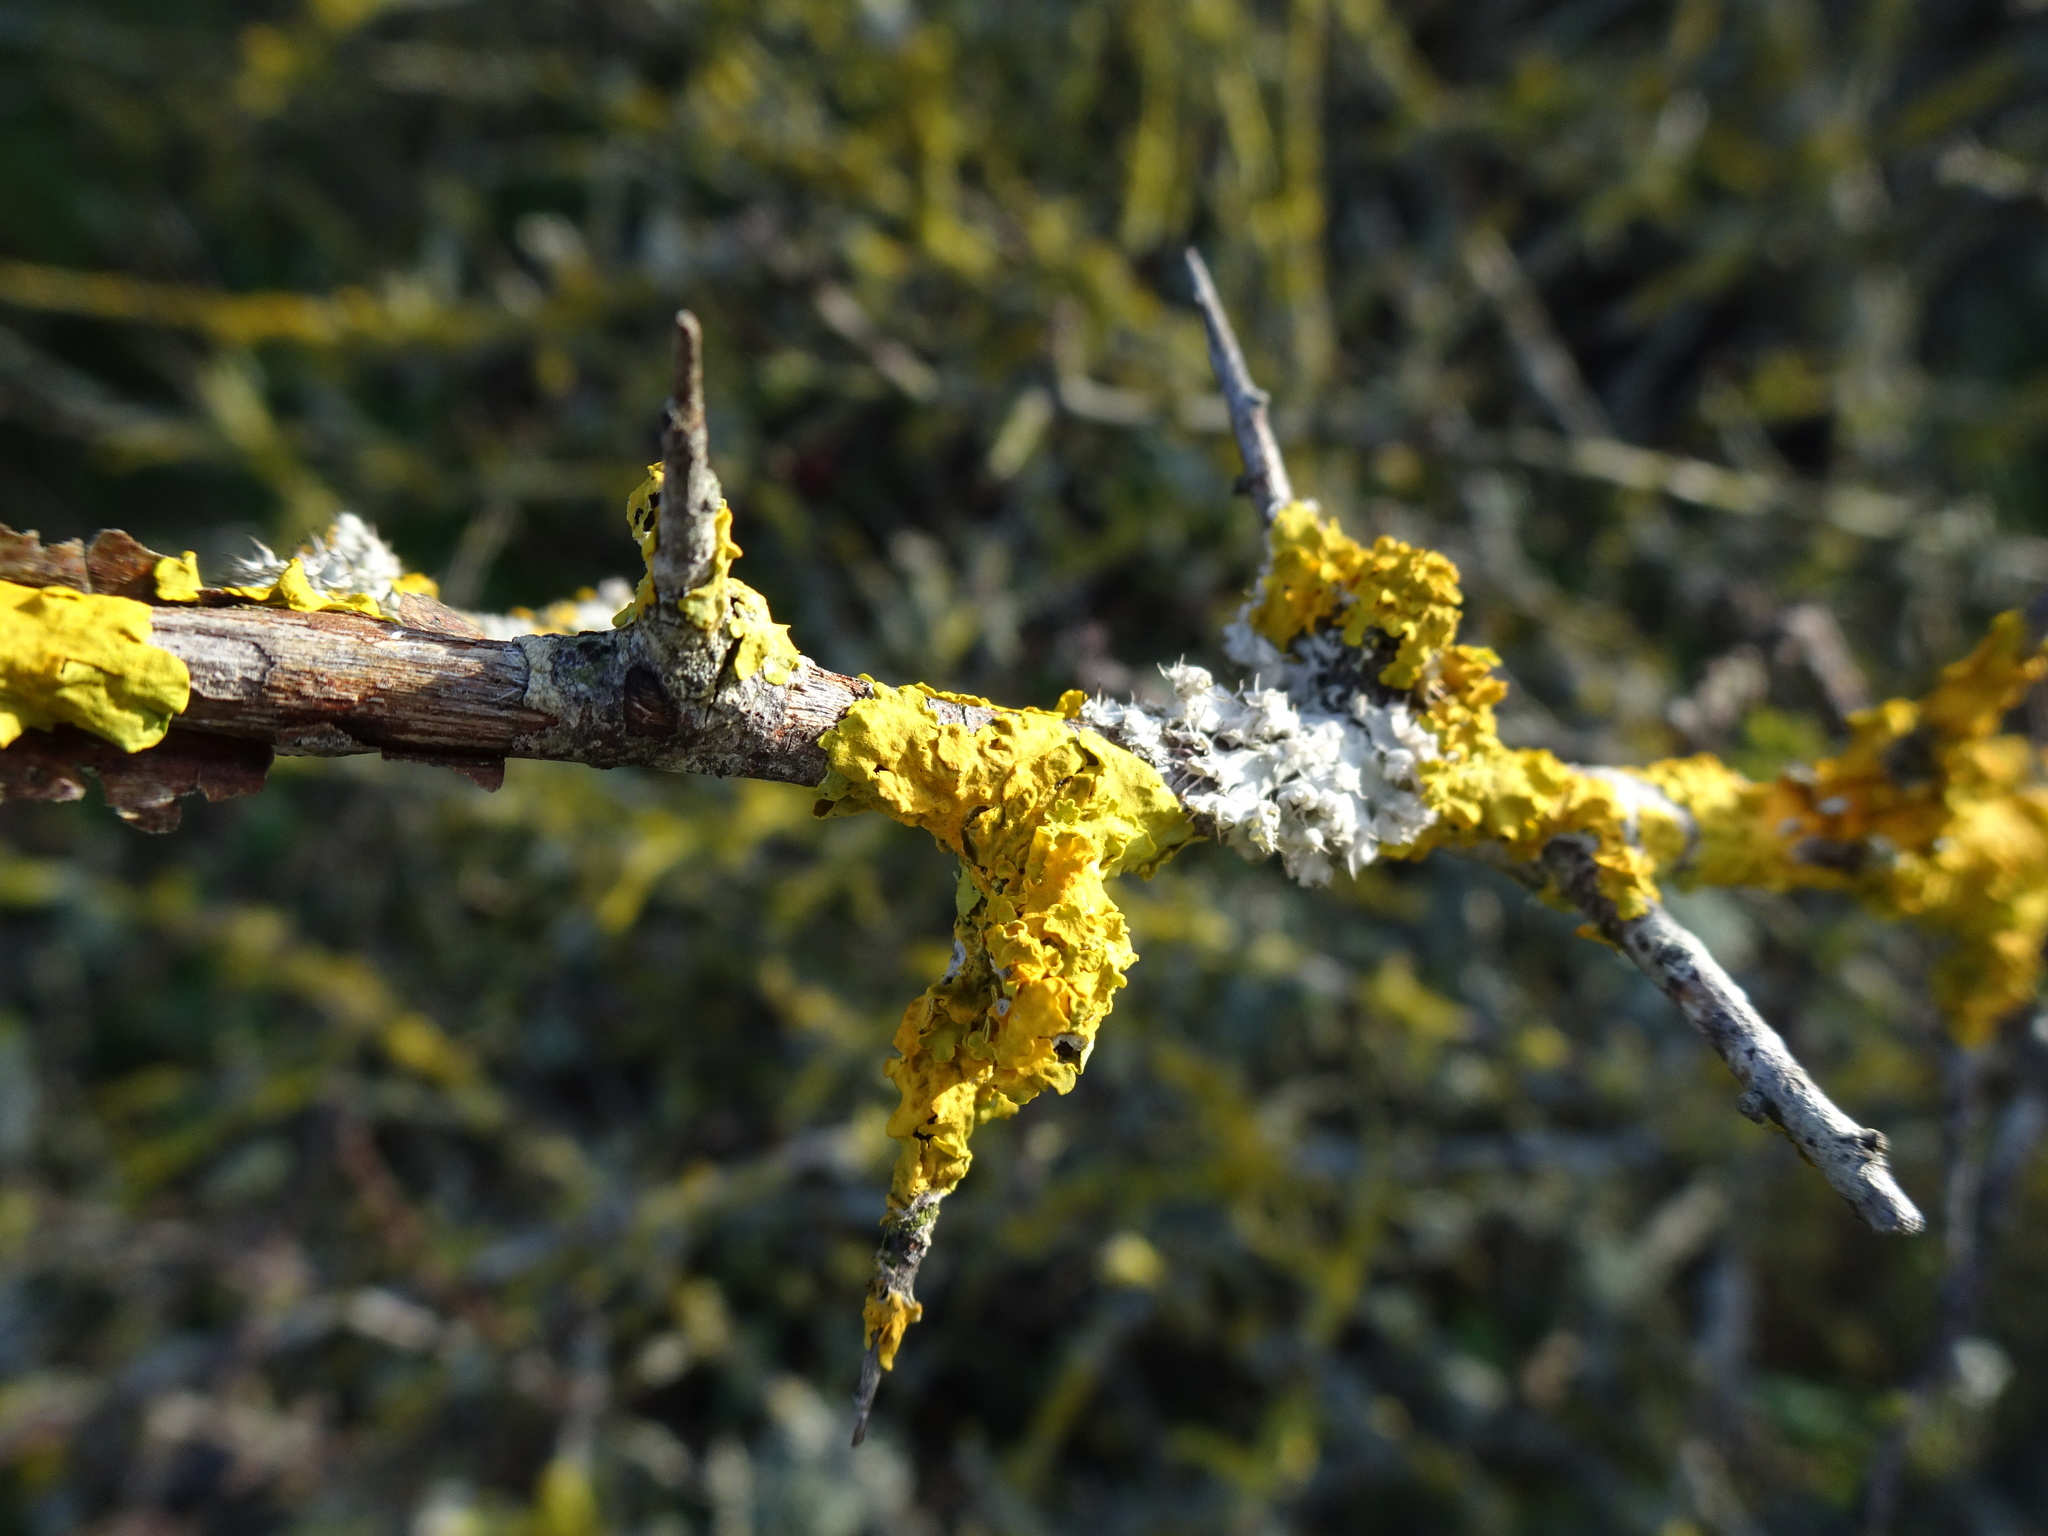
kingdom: Fungi
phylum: Ascomycota
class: Lecanoromycetes
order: Teloschistales
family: Teloschistaceae
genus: Xanthoria
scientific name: Xanthoria parietina
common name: Common orange lichen
